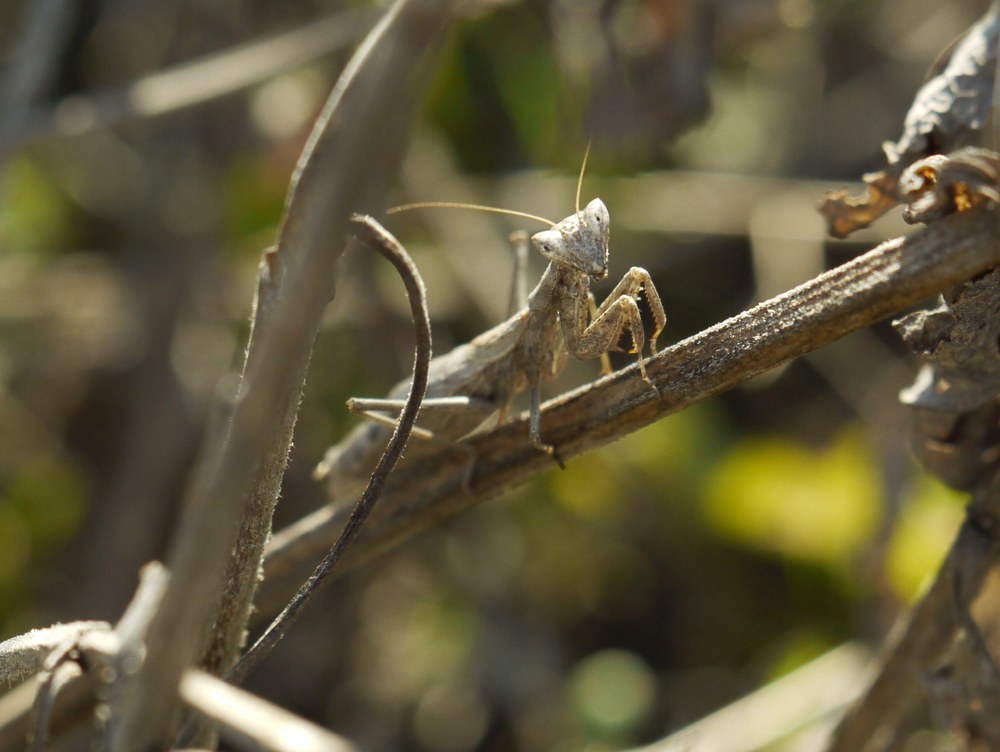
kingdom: Animalia
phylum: Arthropoda
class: Insecta
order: Mantodea
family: Amelidae
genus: Ameles
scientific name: Ameles heldreichi
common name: Heldreich's dwarf mantis
